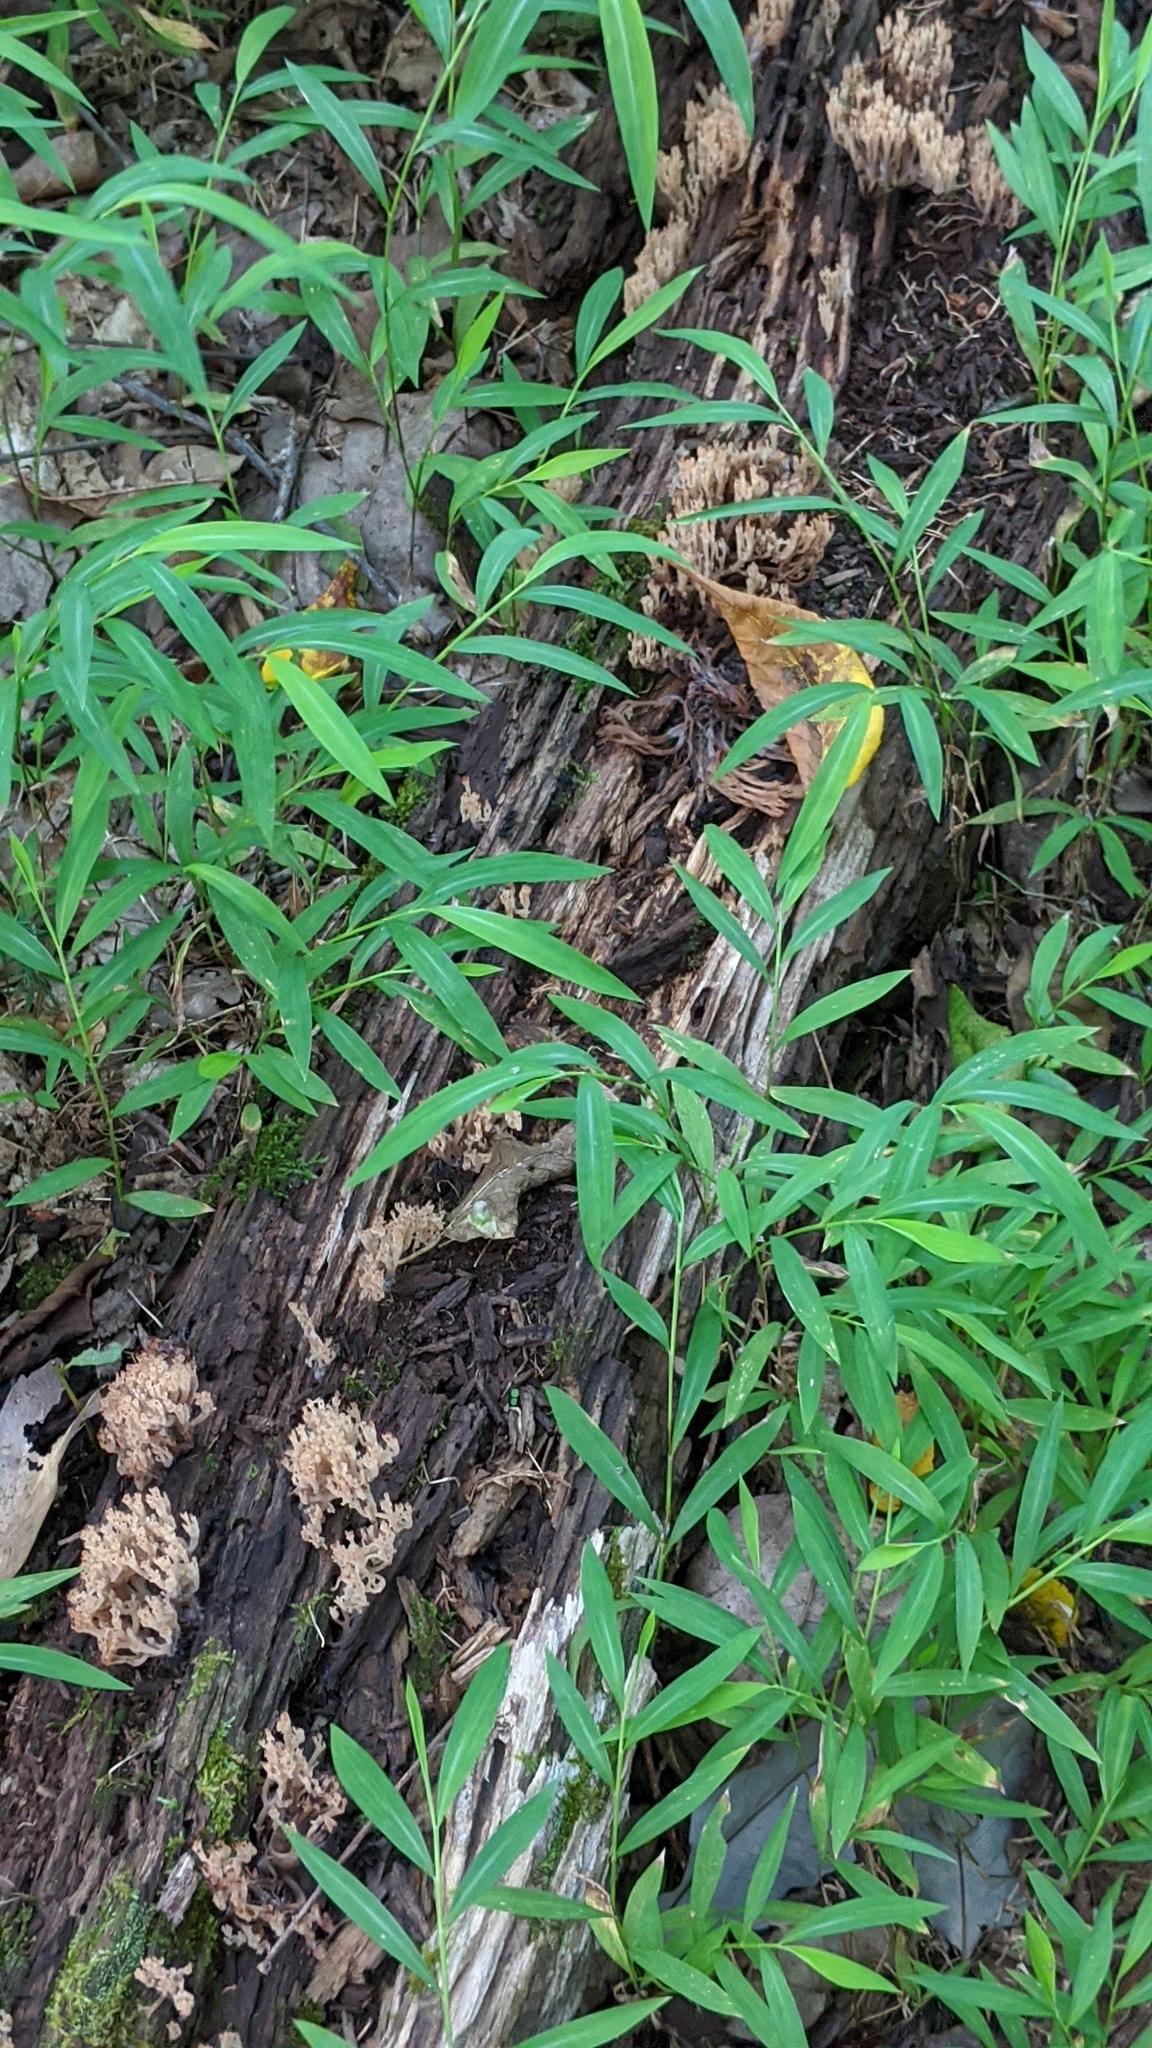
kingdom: Fungi
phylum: Basidiomycota
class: Agaricomycetes
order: Russulales
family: Auriscalpiaceae
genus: Artomyces
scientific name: Artomyces pyxidatus
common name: Crown-tipped coral fungus
